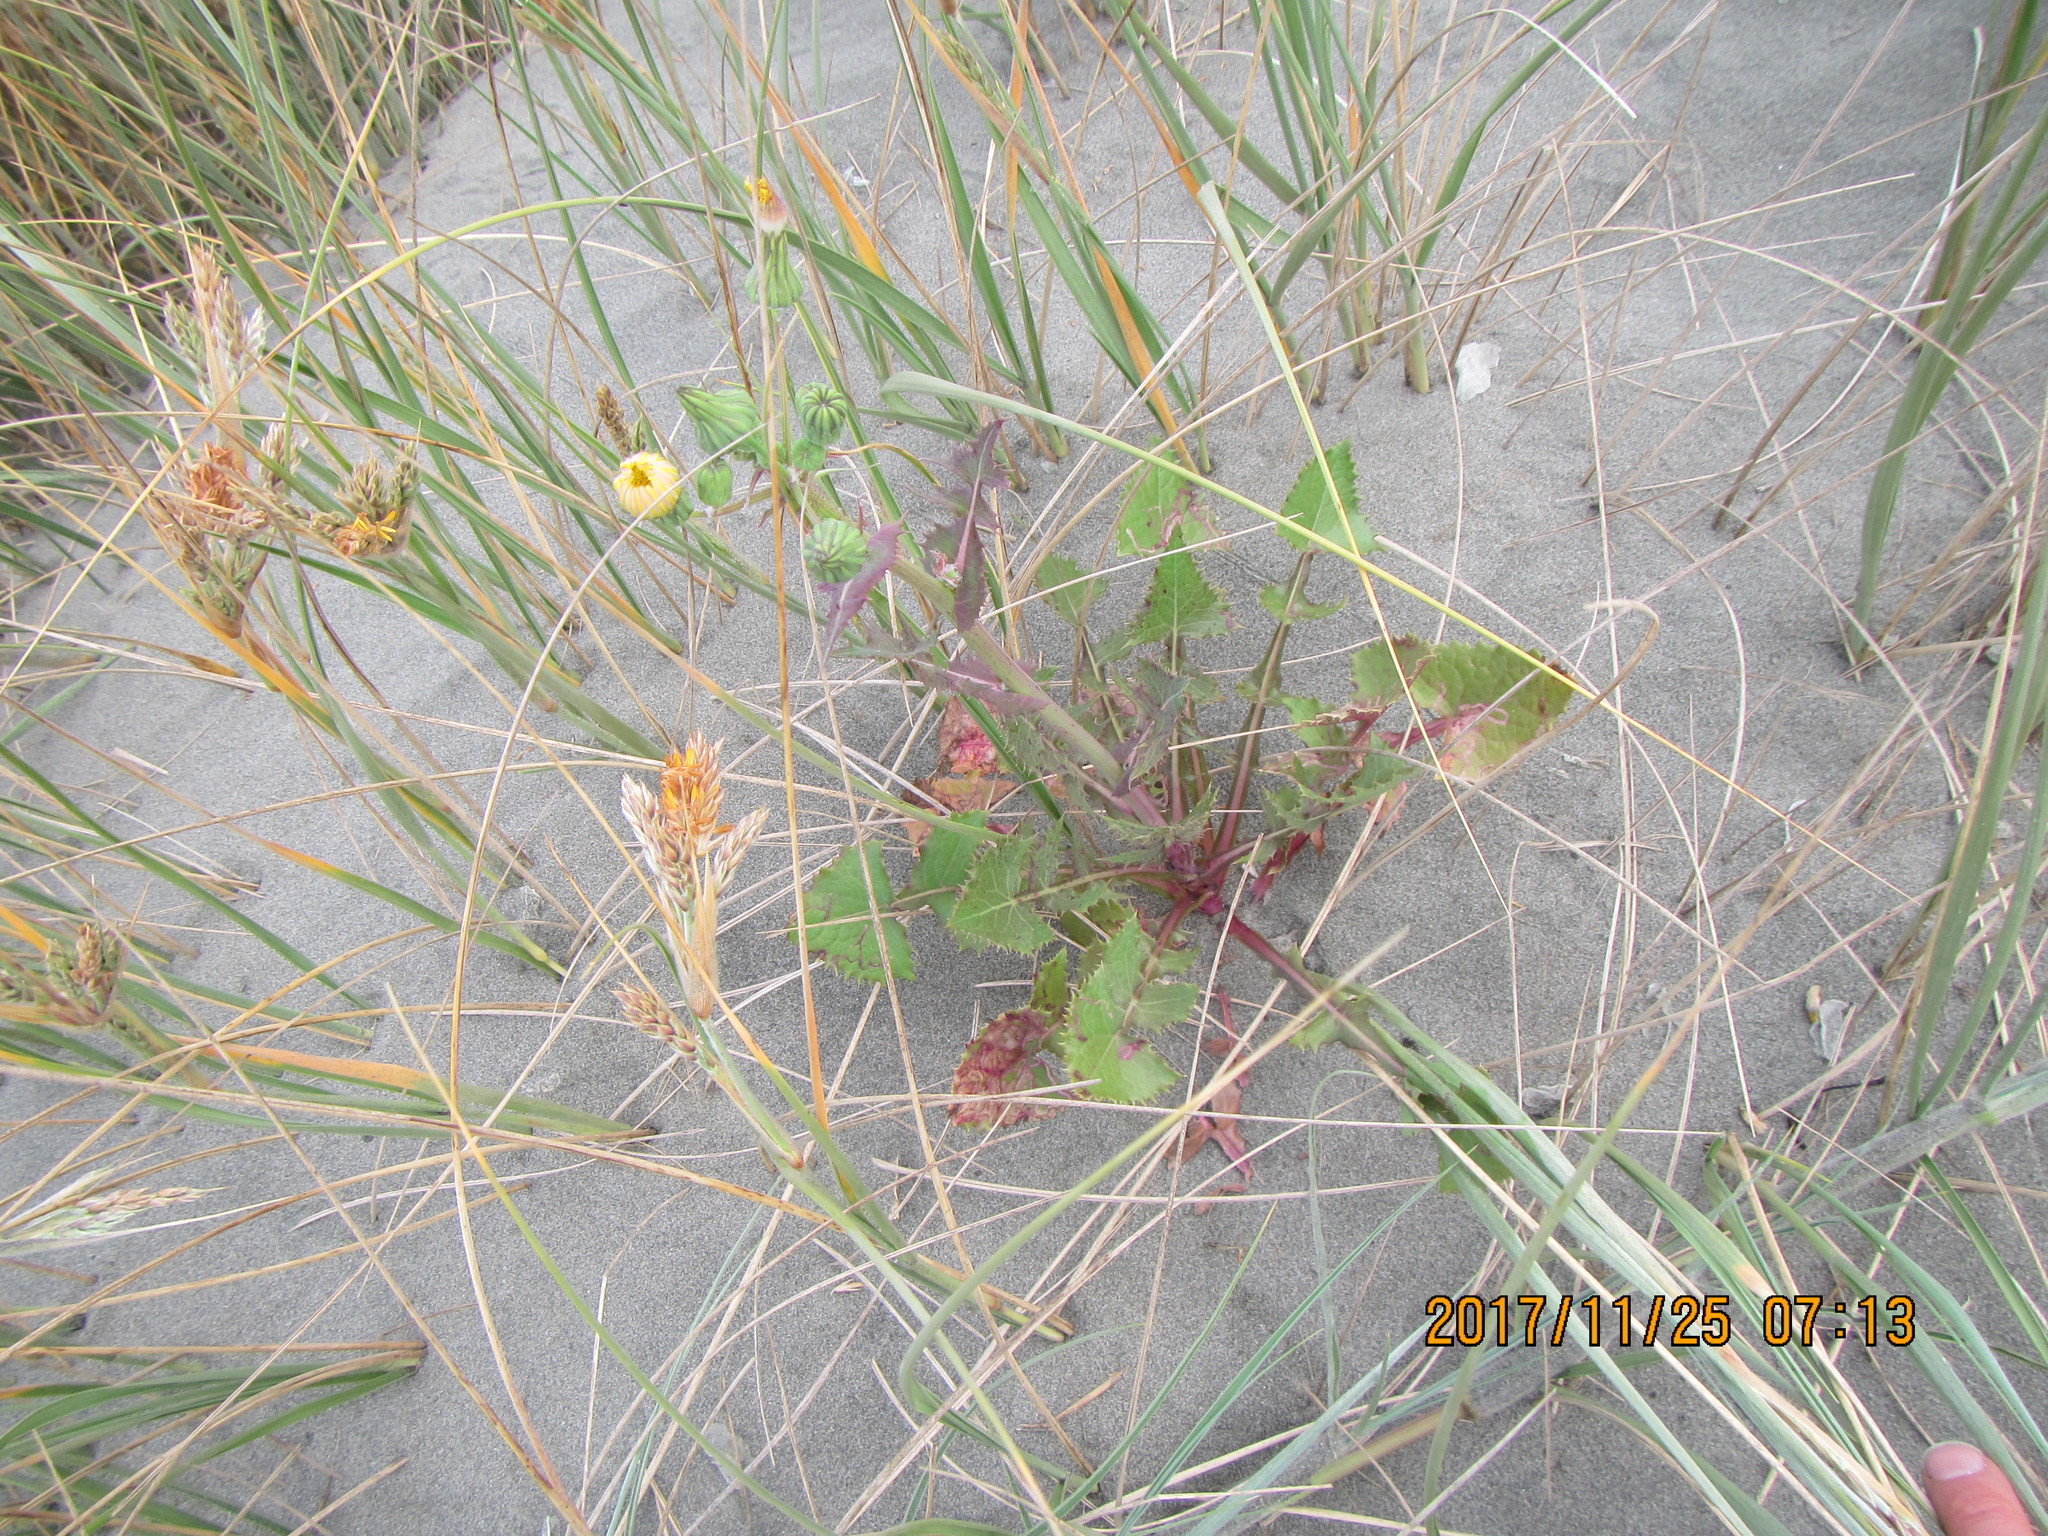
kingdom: Plantae
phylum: Tracheophyta
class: Magnoliopsida
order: Asterales
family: Asteraceae
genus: Sonchus
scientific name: Sonchus oleraceus
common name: Common sowthistle
